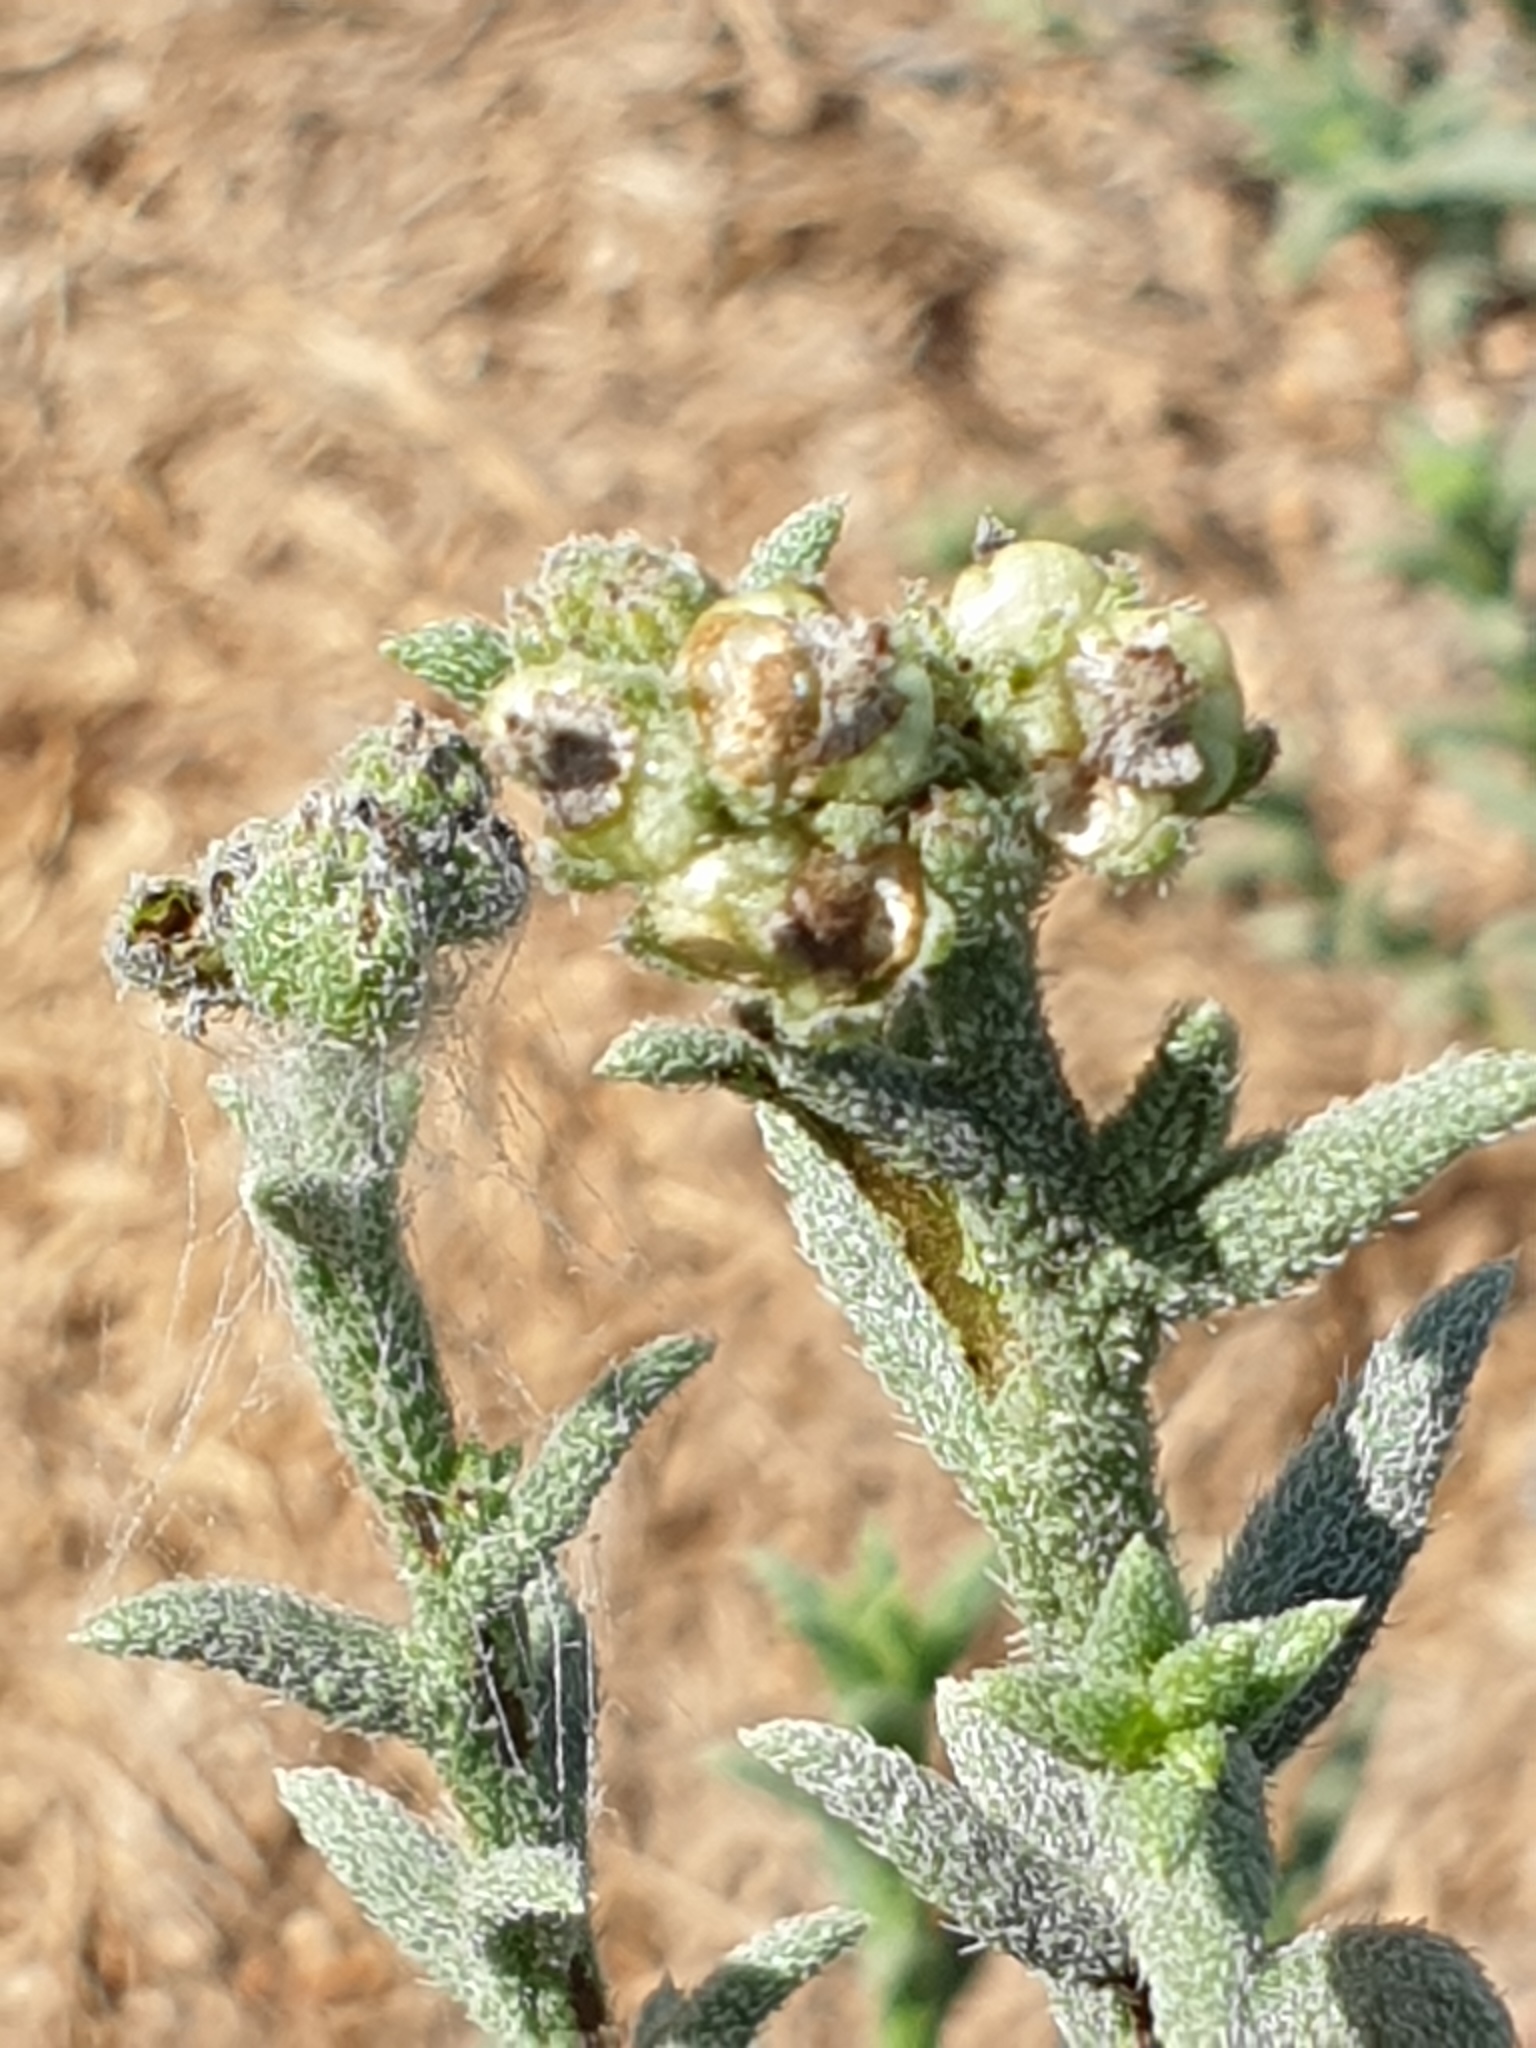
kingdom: Plantae
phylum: Tracheophyta
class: Magnoliopsida
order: Boraginales
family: Heliotropiaceae
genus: Heliotropium
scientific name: Heliotropium
